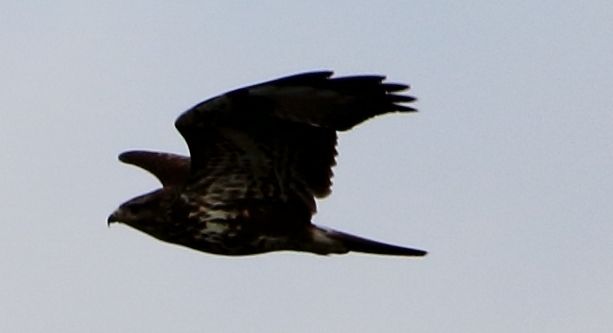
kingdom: Animalia
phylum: Chordata
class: Aves
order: Accipitriformes
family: Accipitridae
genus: Buteo
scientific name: Buteo buteo
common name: Common buzzard
